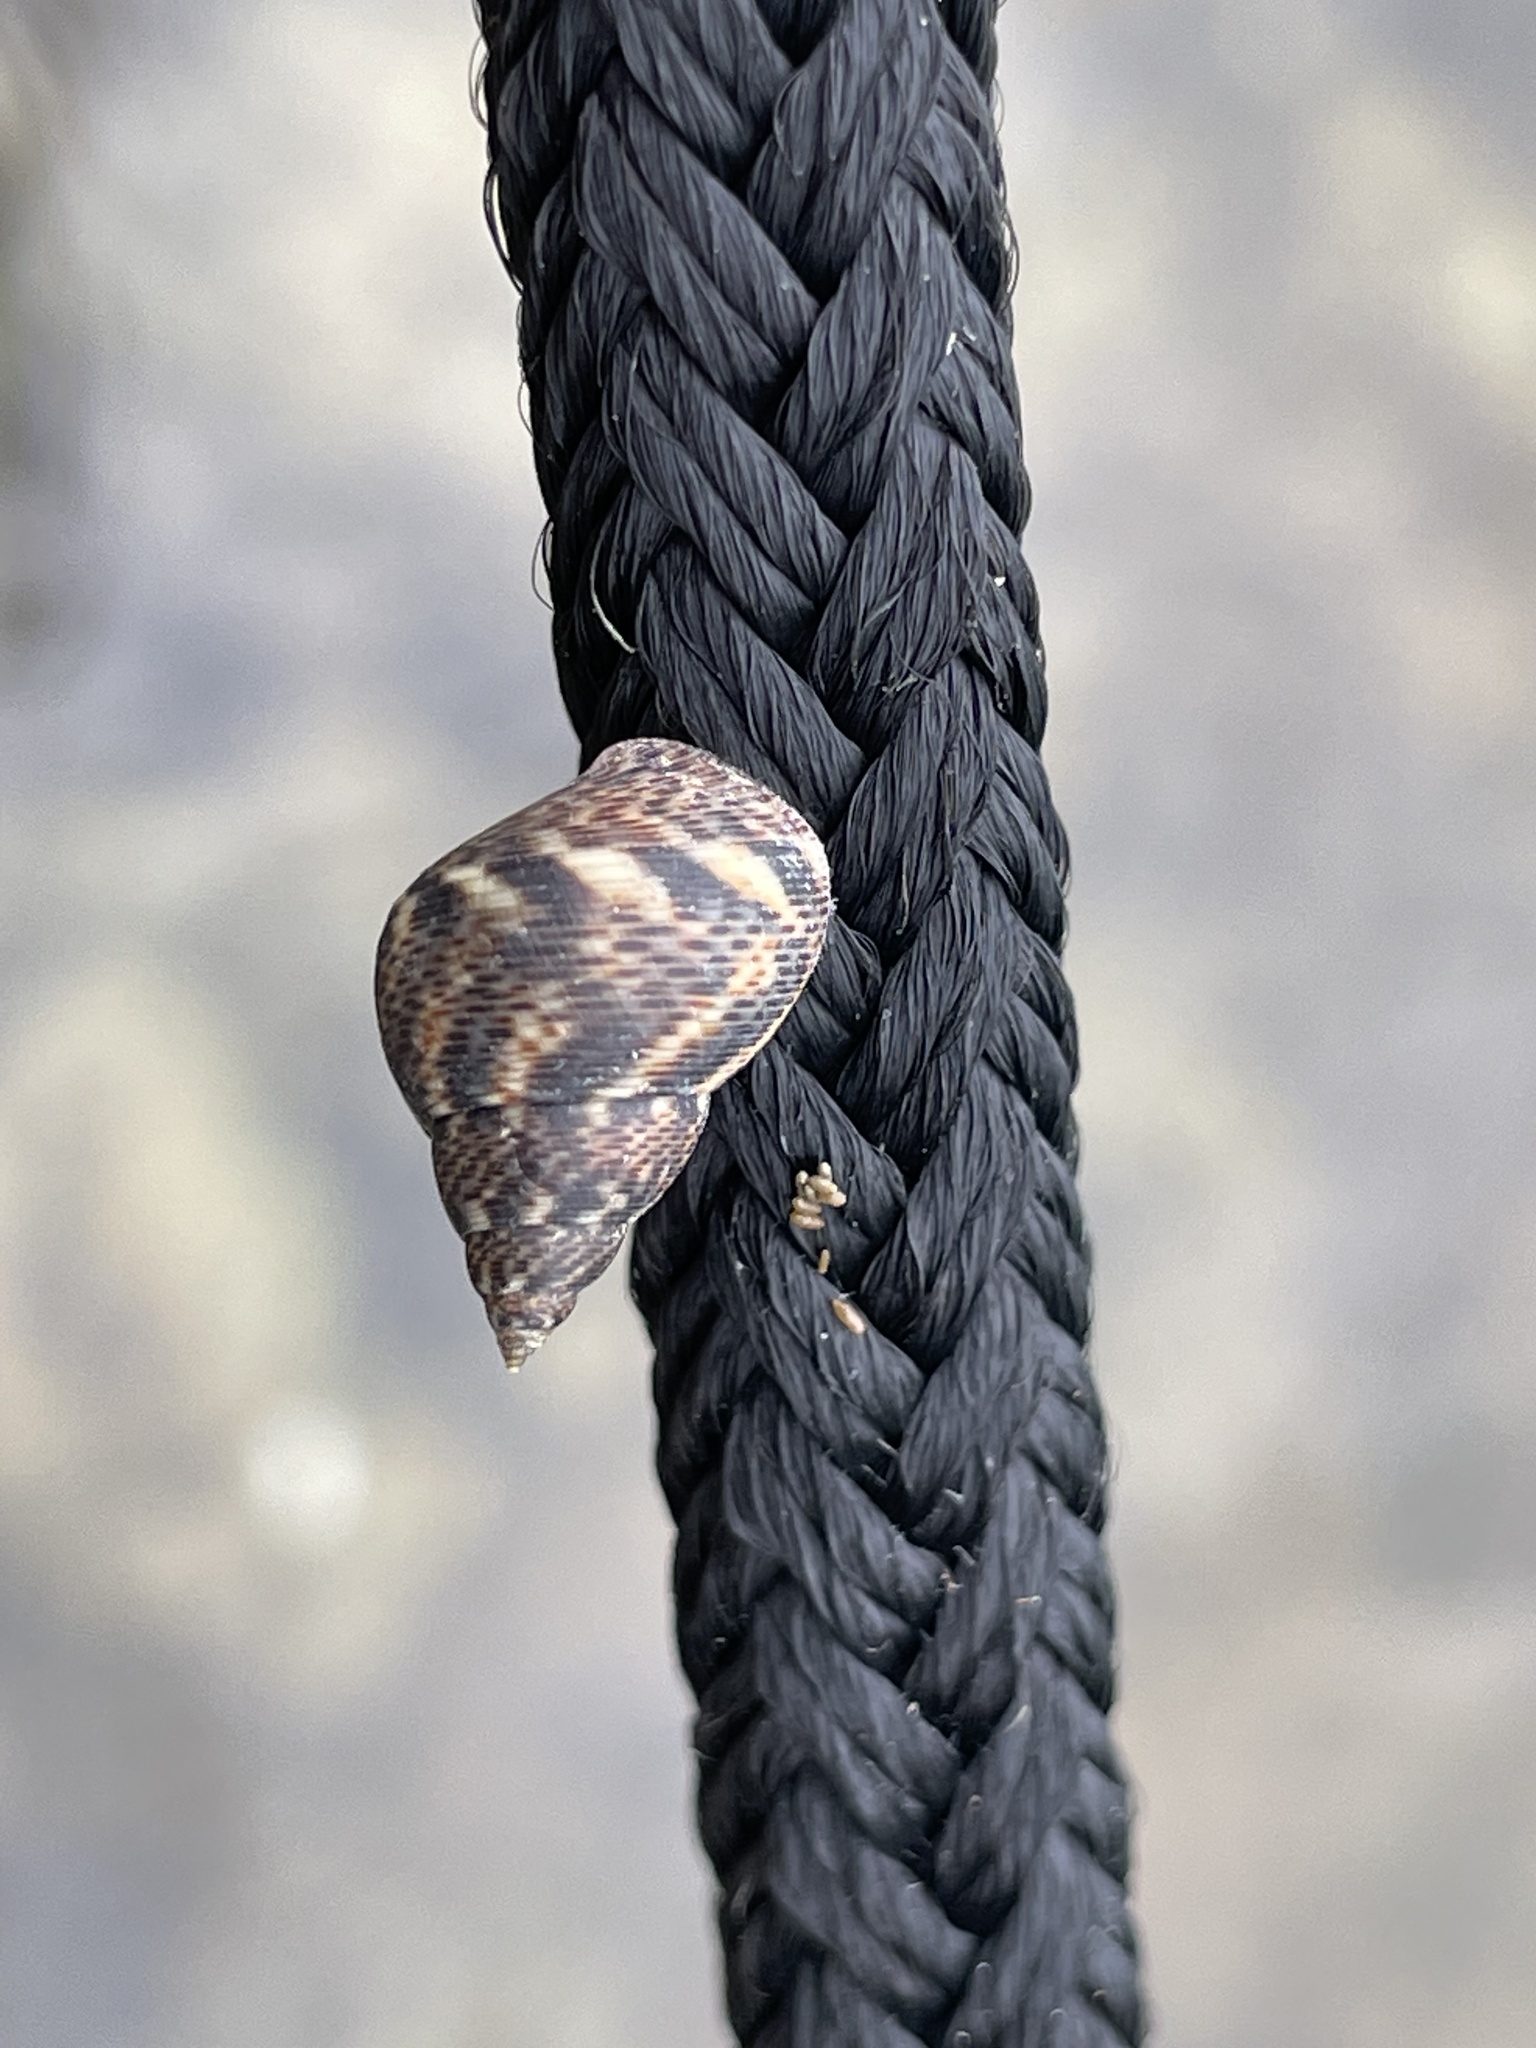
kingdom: Animalia
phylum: Mollusca
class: Gastropoda
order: Littorinimorpha
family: Littorinidae
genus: Littoraria
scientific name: Littoraria angulifera
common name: Mangrove periwinkle
